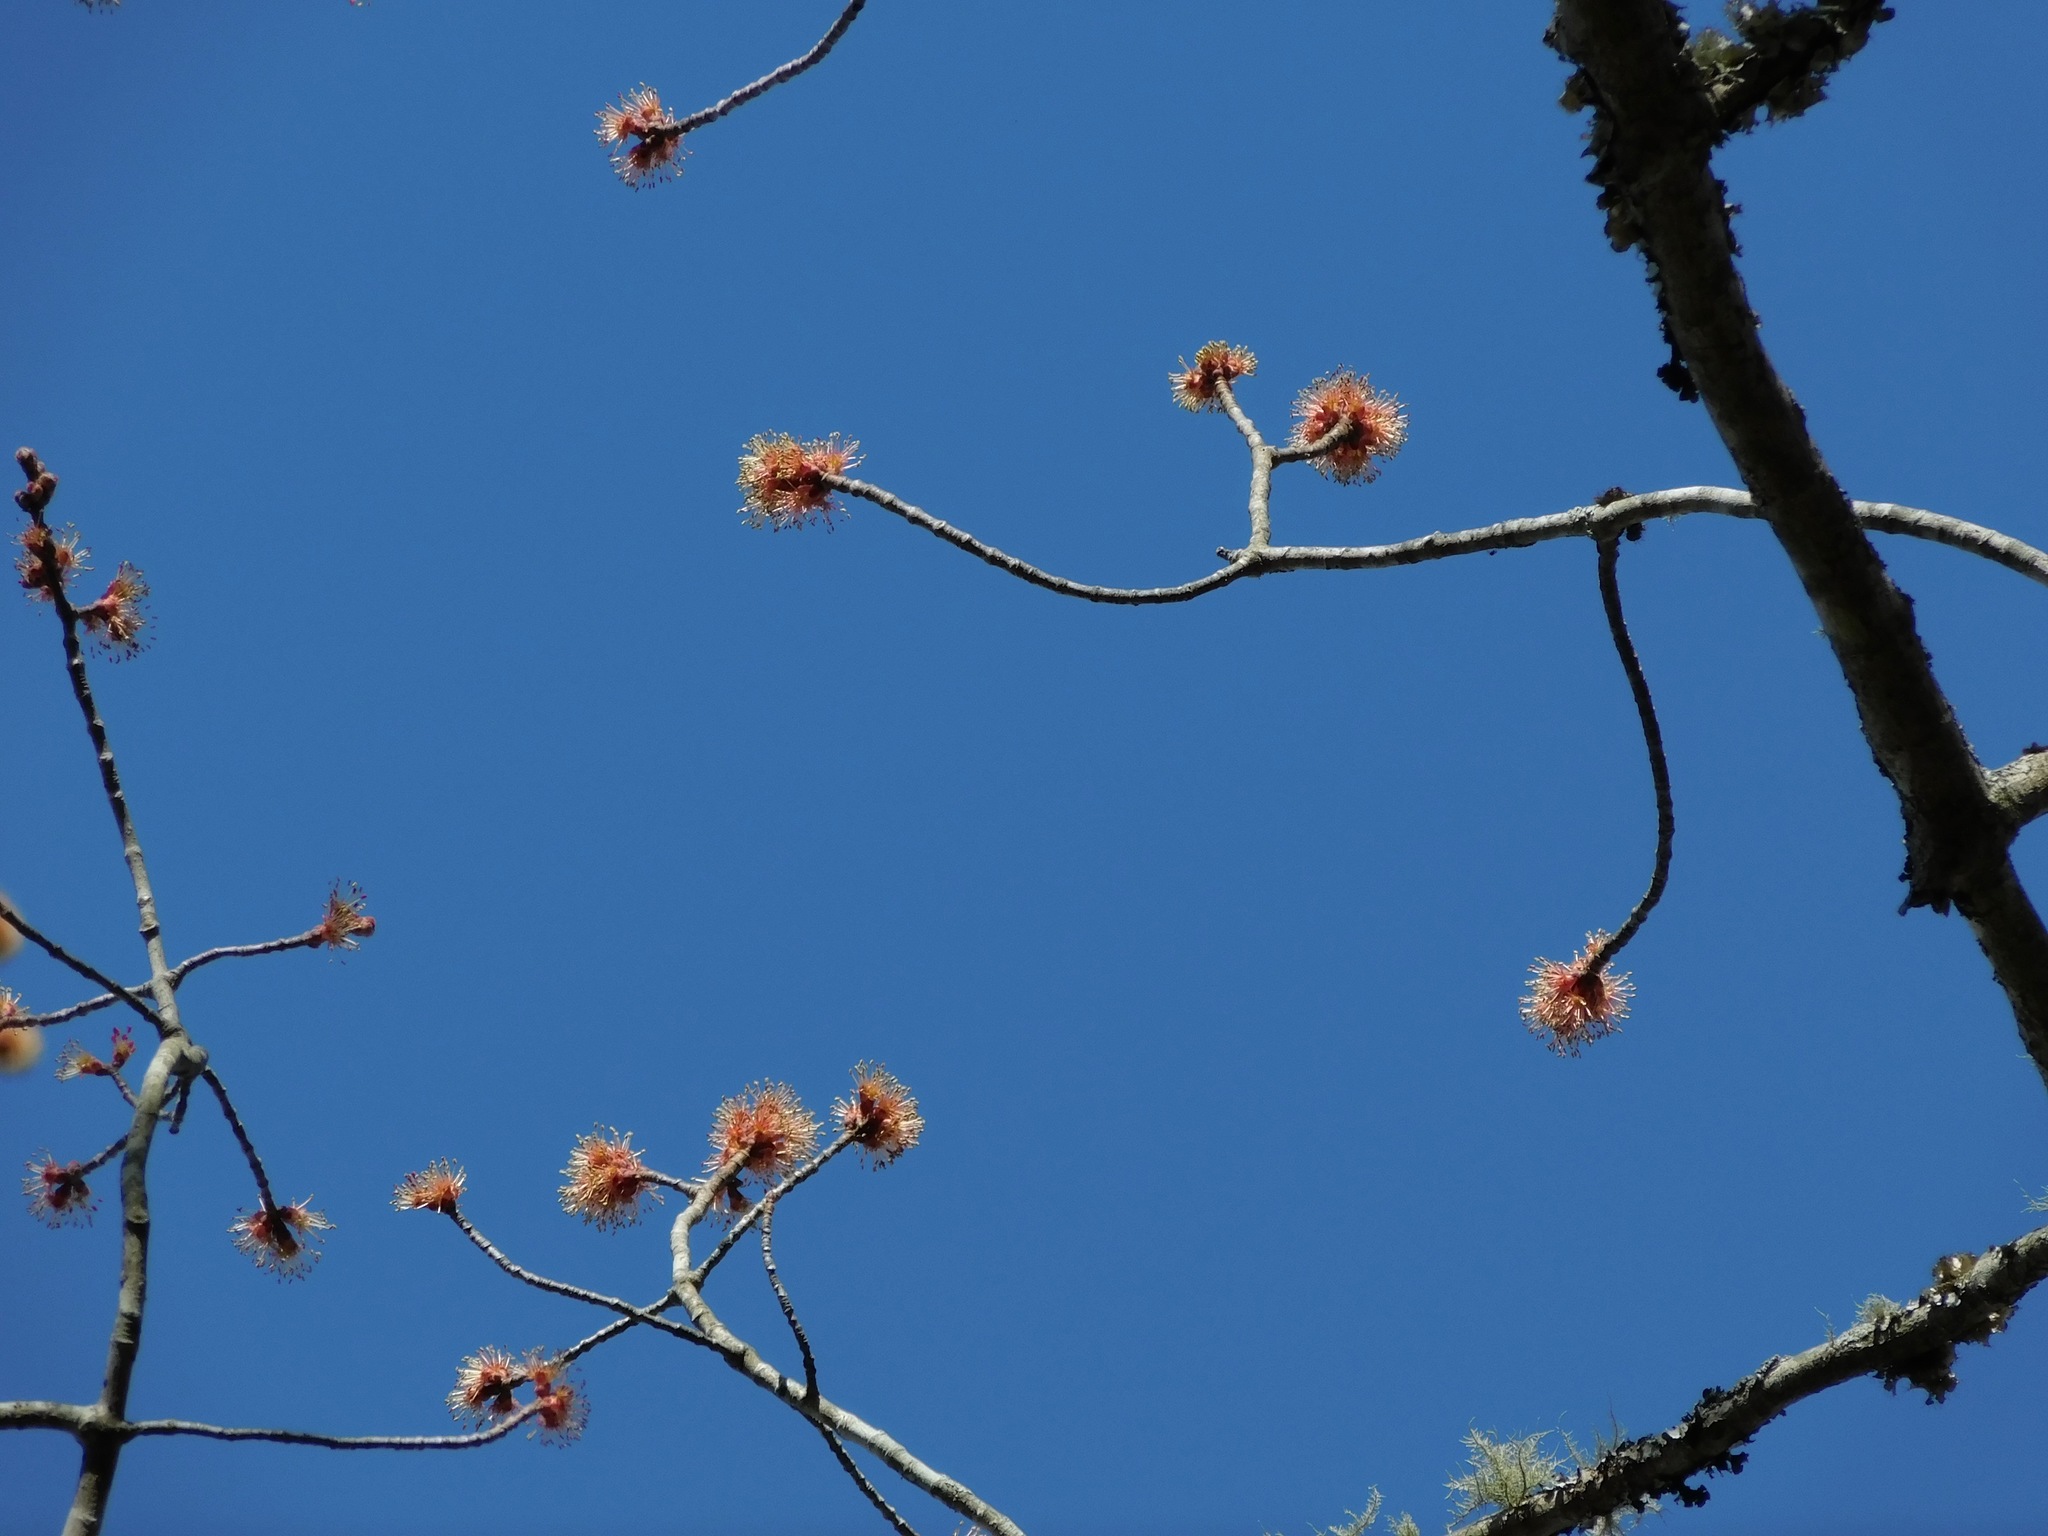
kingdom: Plantae
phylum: Tracheophyta
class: Magnoliopsida
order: Sapindales
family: Sapindaceae
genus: Acer
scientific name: Acer freemanii
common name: Freeman maple
